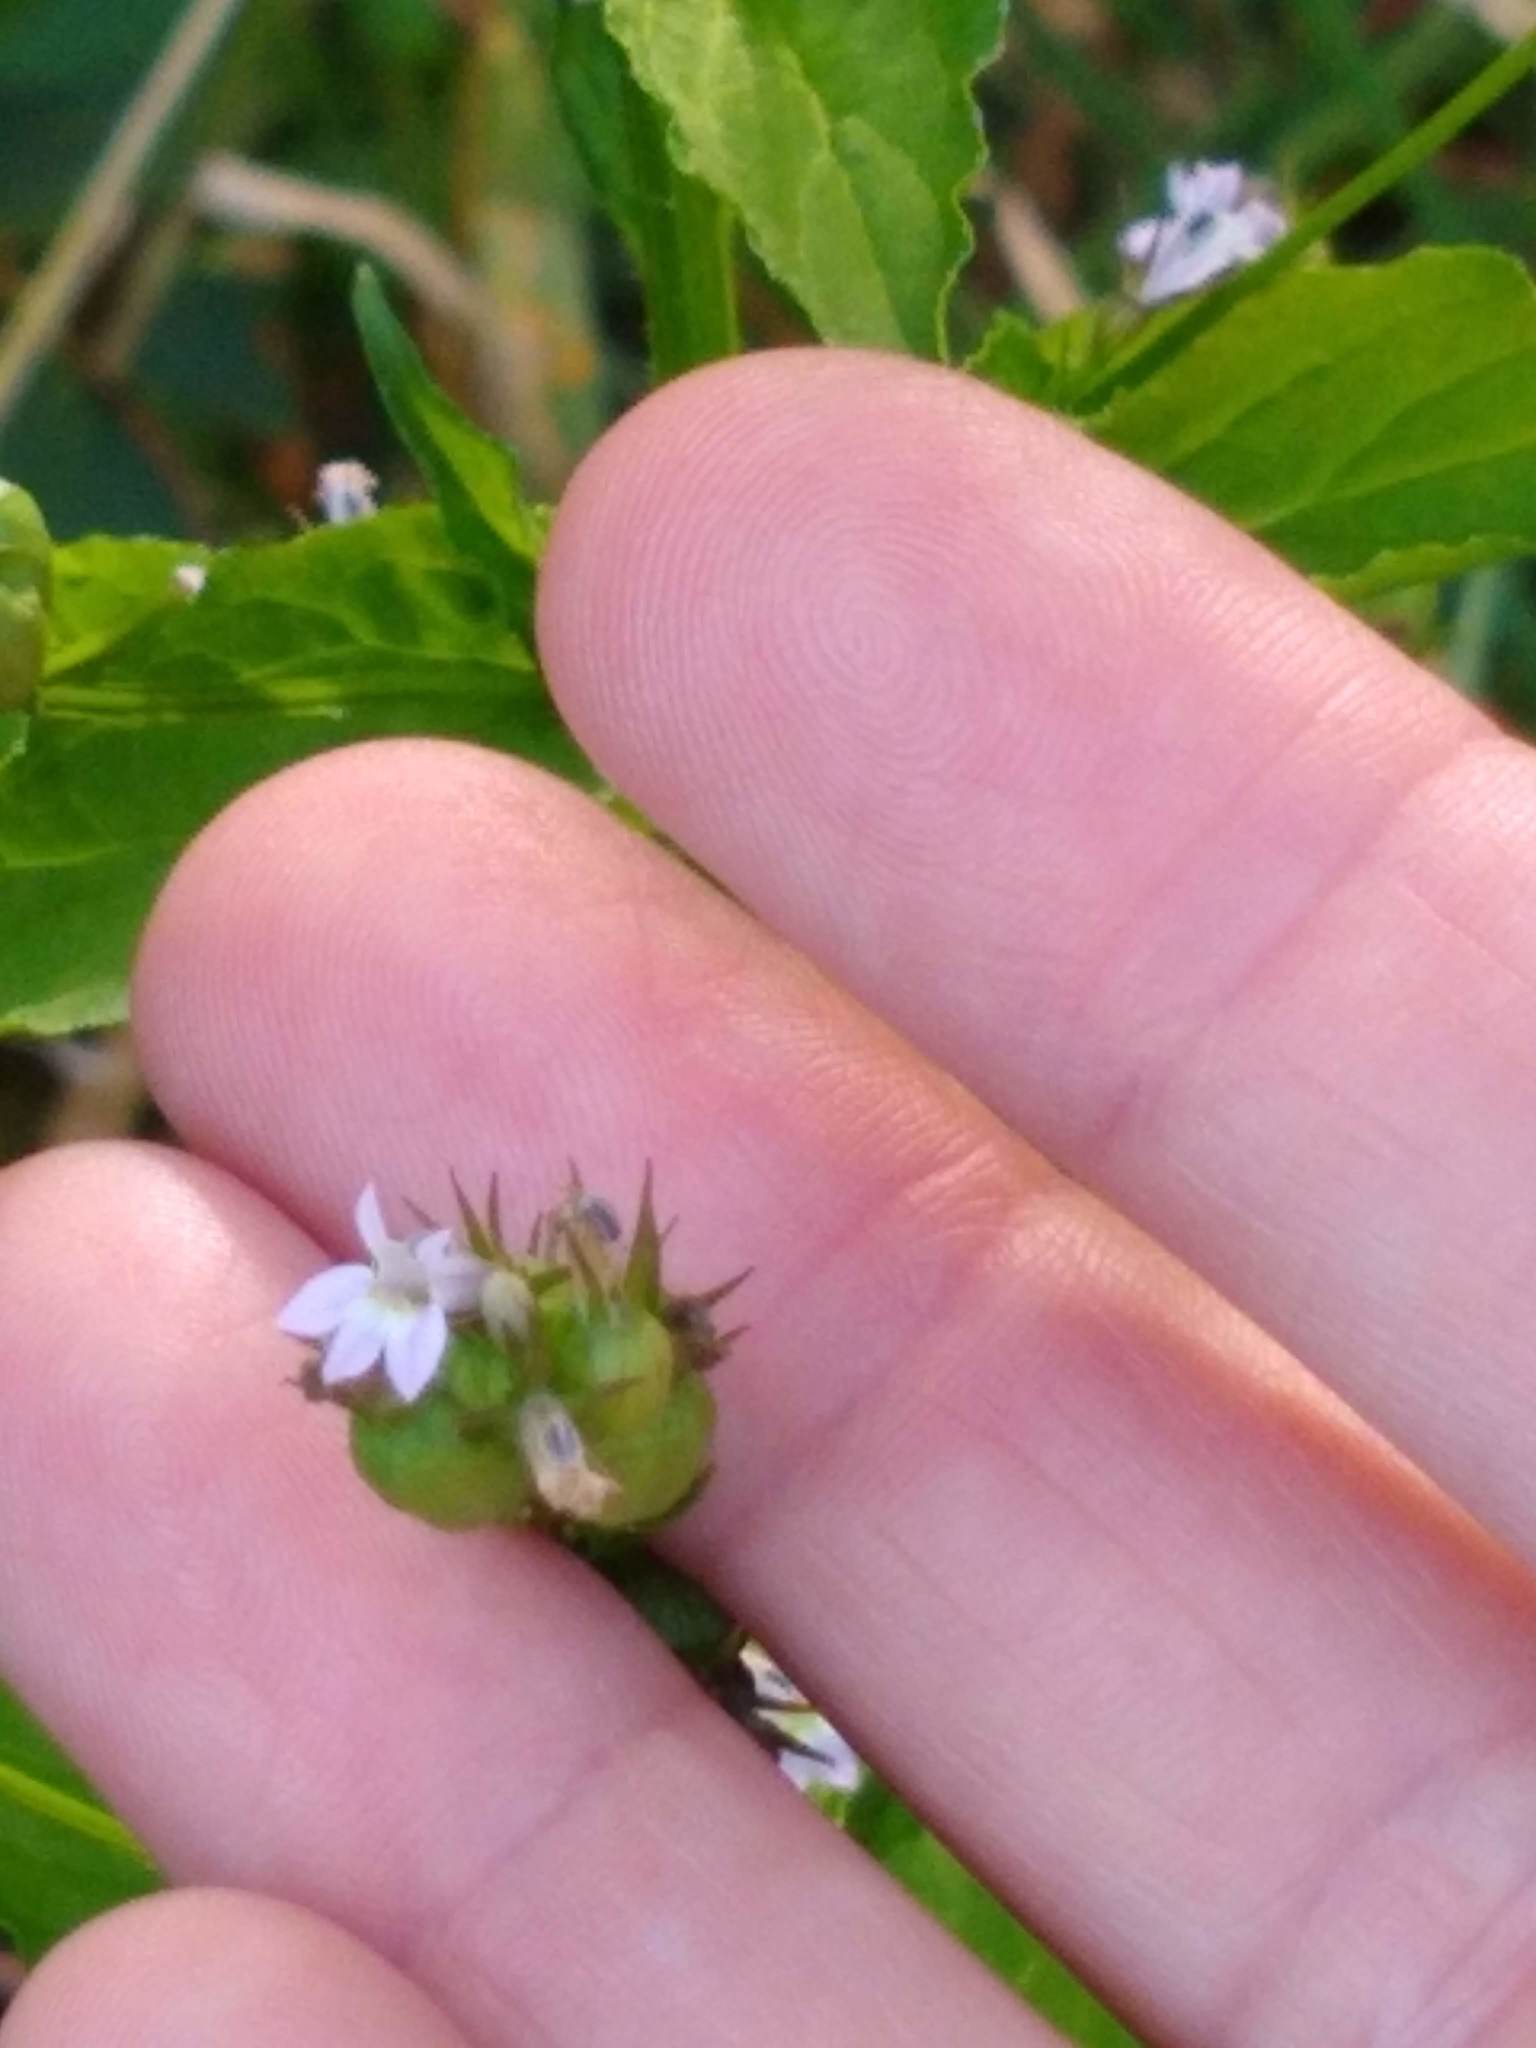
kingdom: Plantae
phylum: Tracheophyta
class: Magnoliopsida
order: Asterales
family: Campanulaceae
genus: Lobelia
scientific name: Lobelia inflata
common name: Indian tobacco
